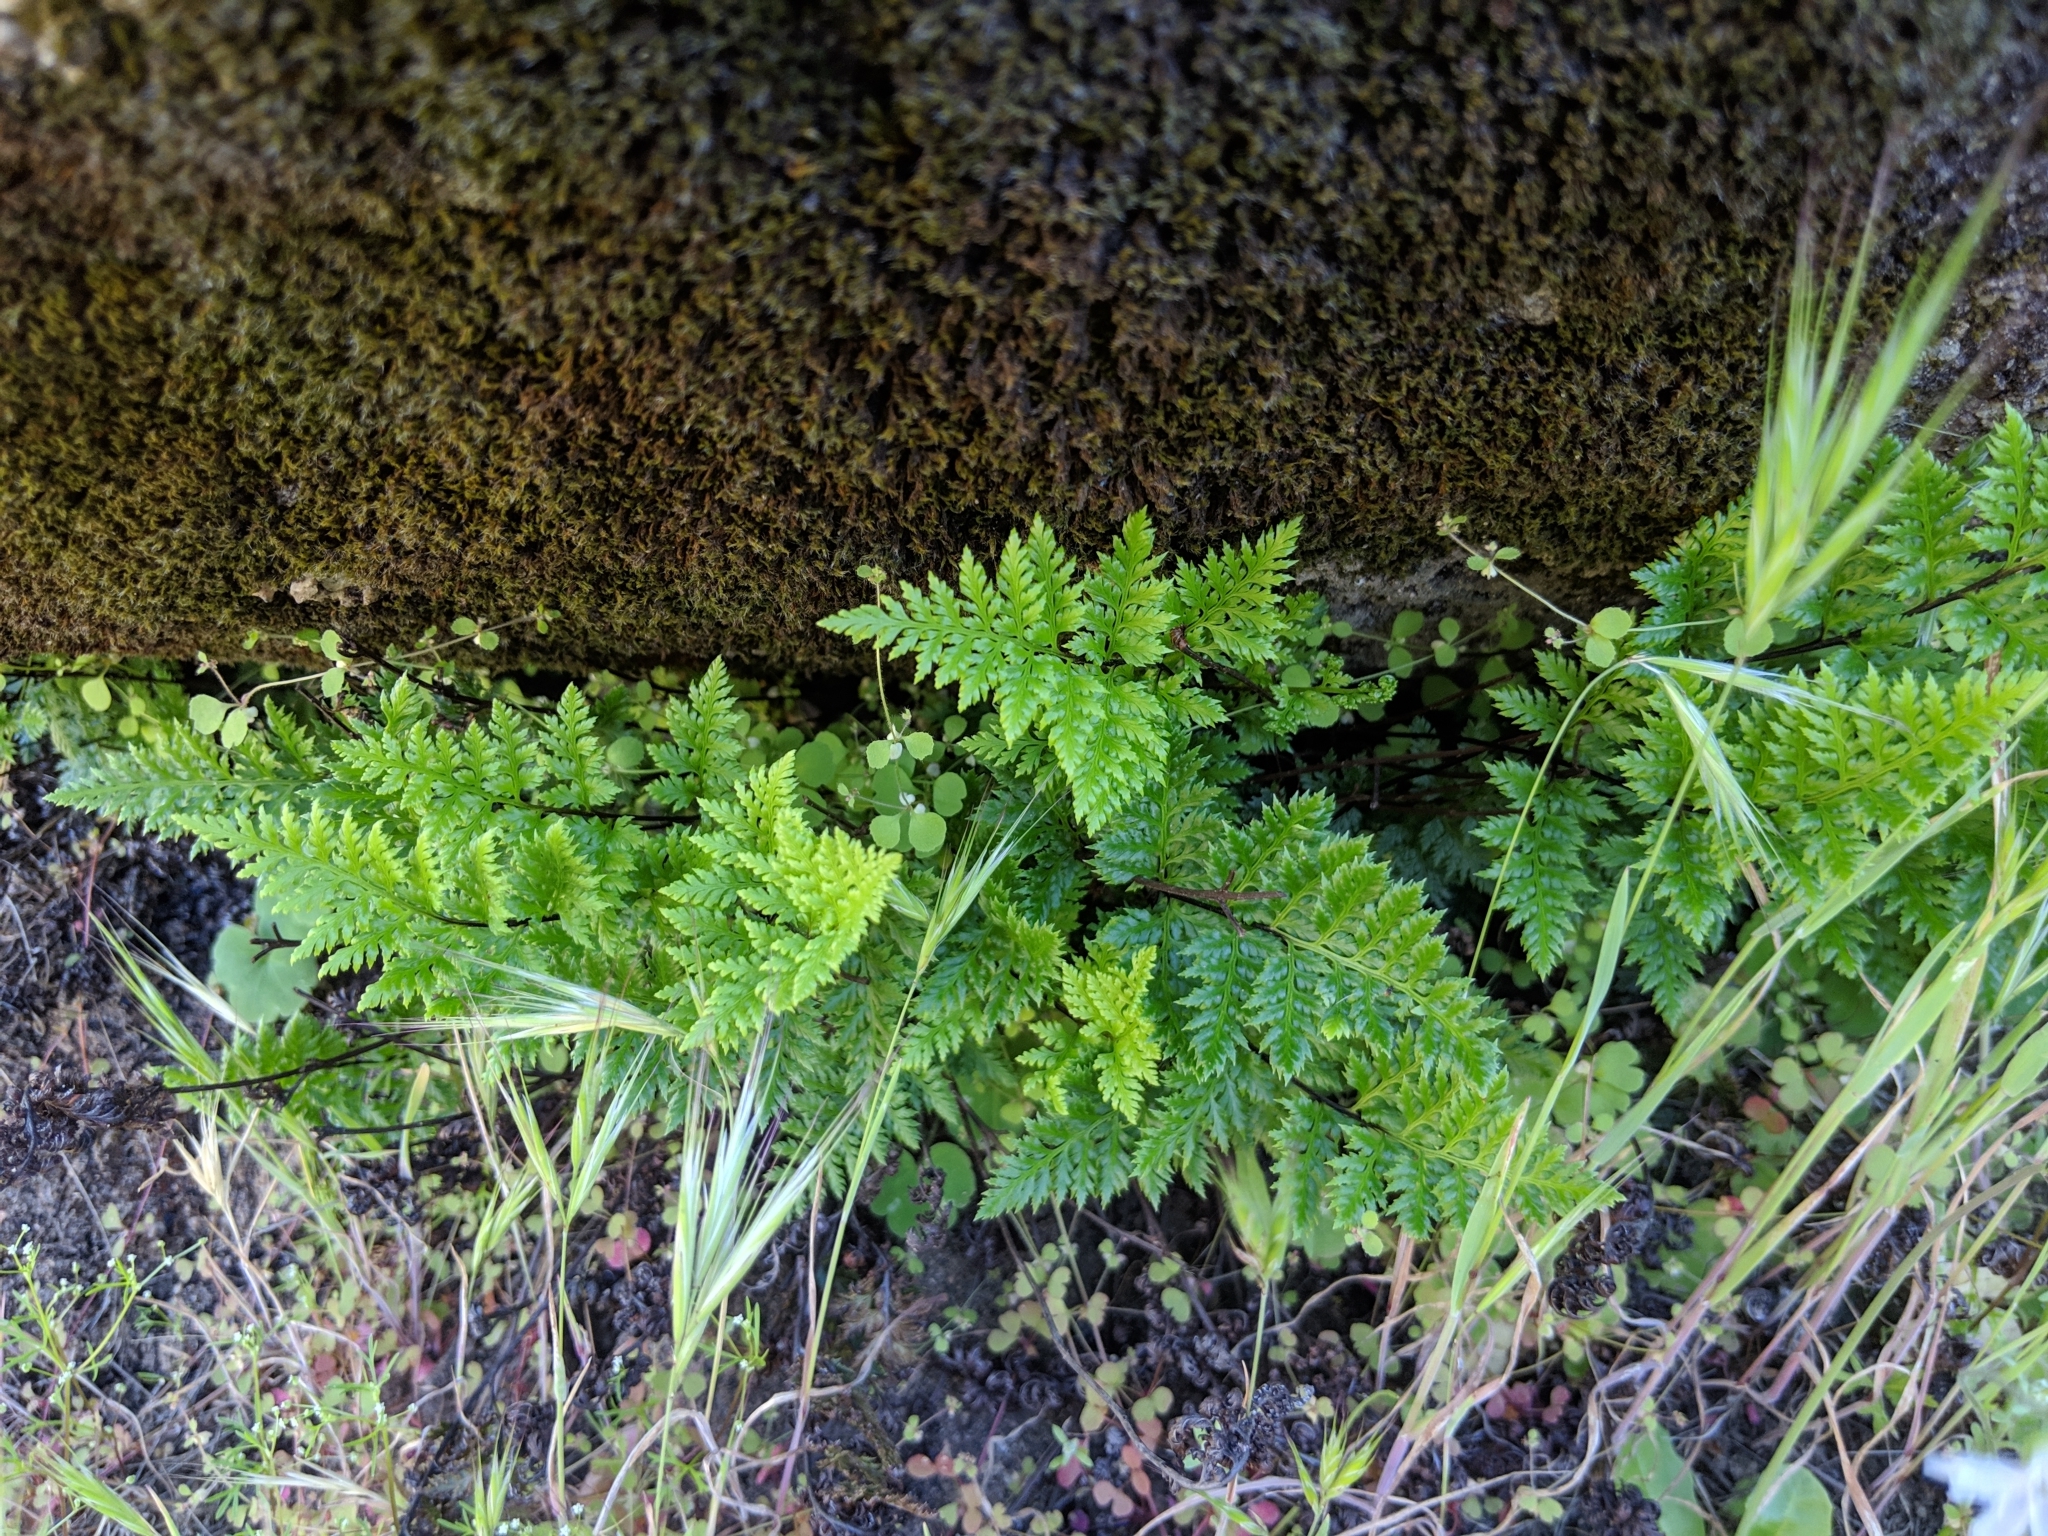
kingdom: Plantae
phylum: Tracheophyta
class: Polypodiopsida
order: Polypodiales
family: Pteridaceae
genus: Aspidotis
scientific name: Aspidotis californica
